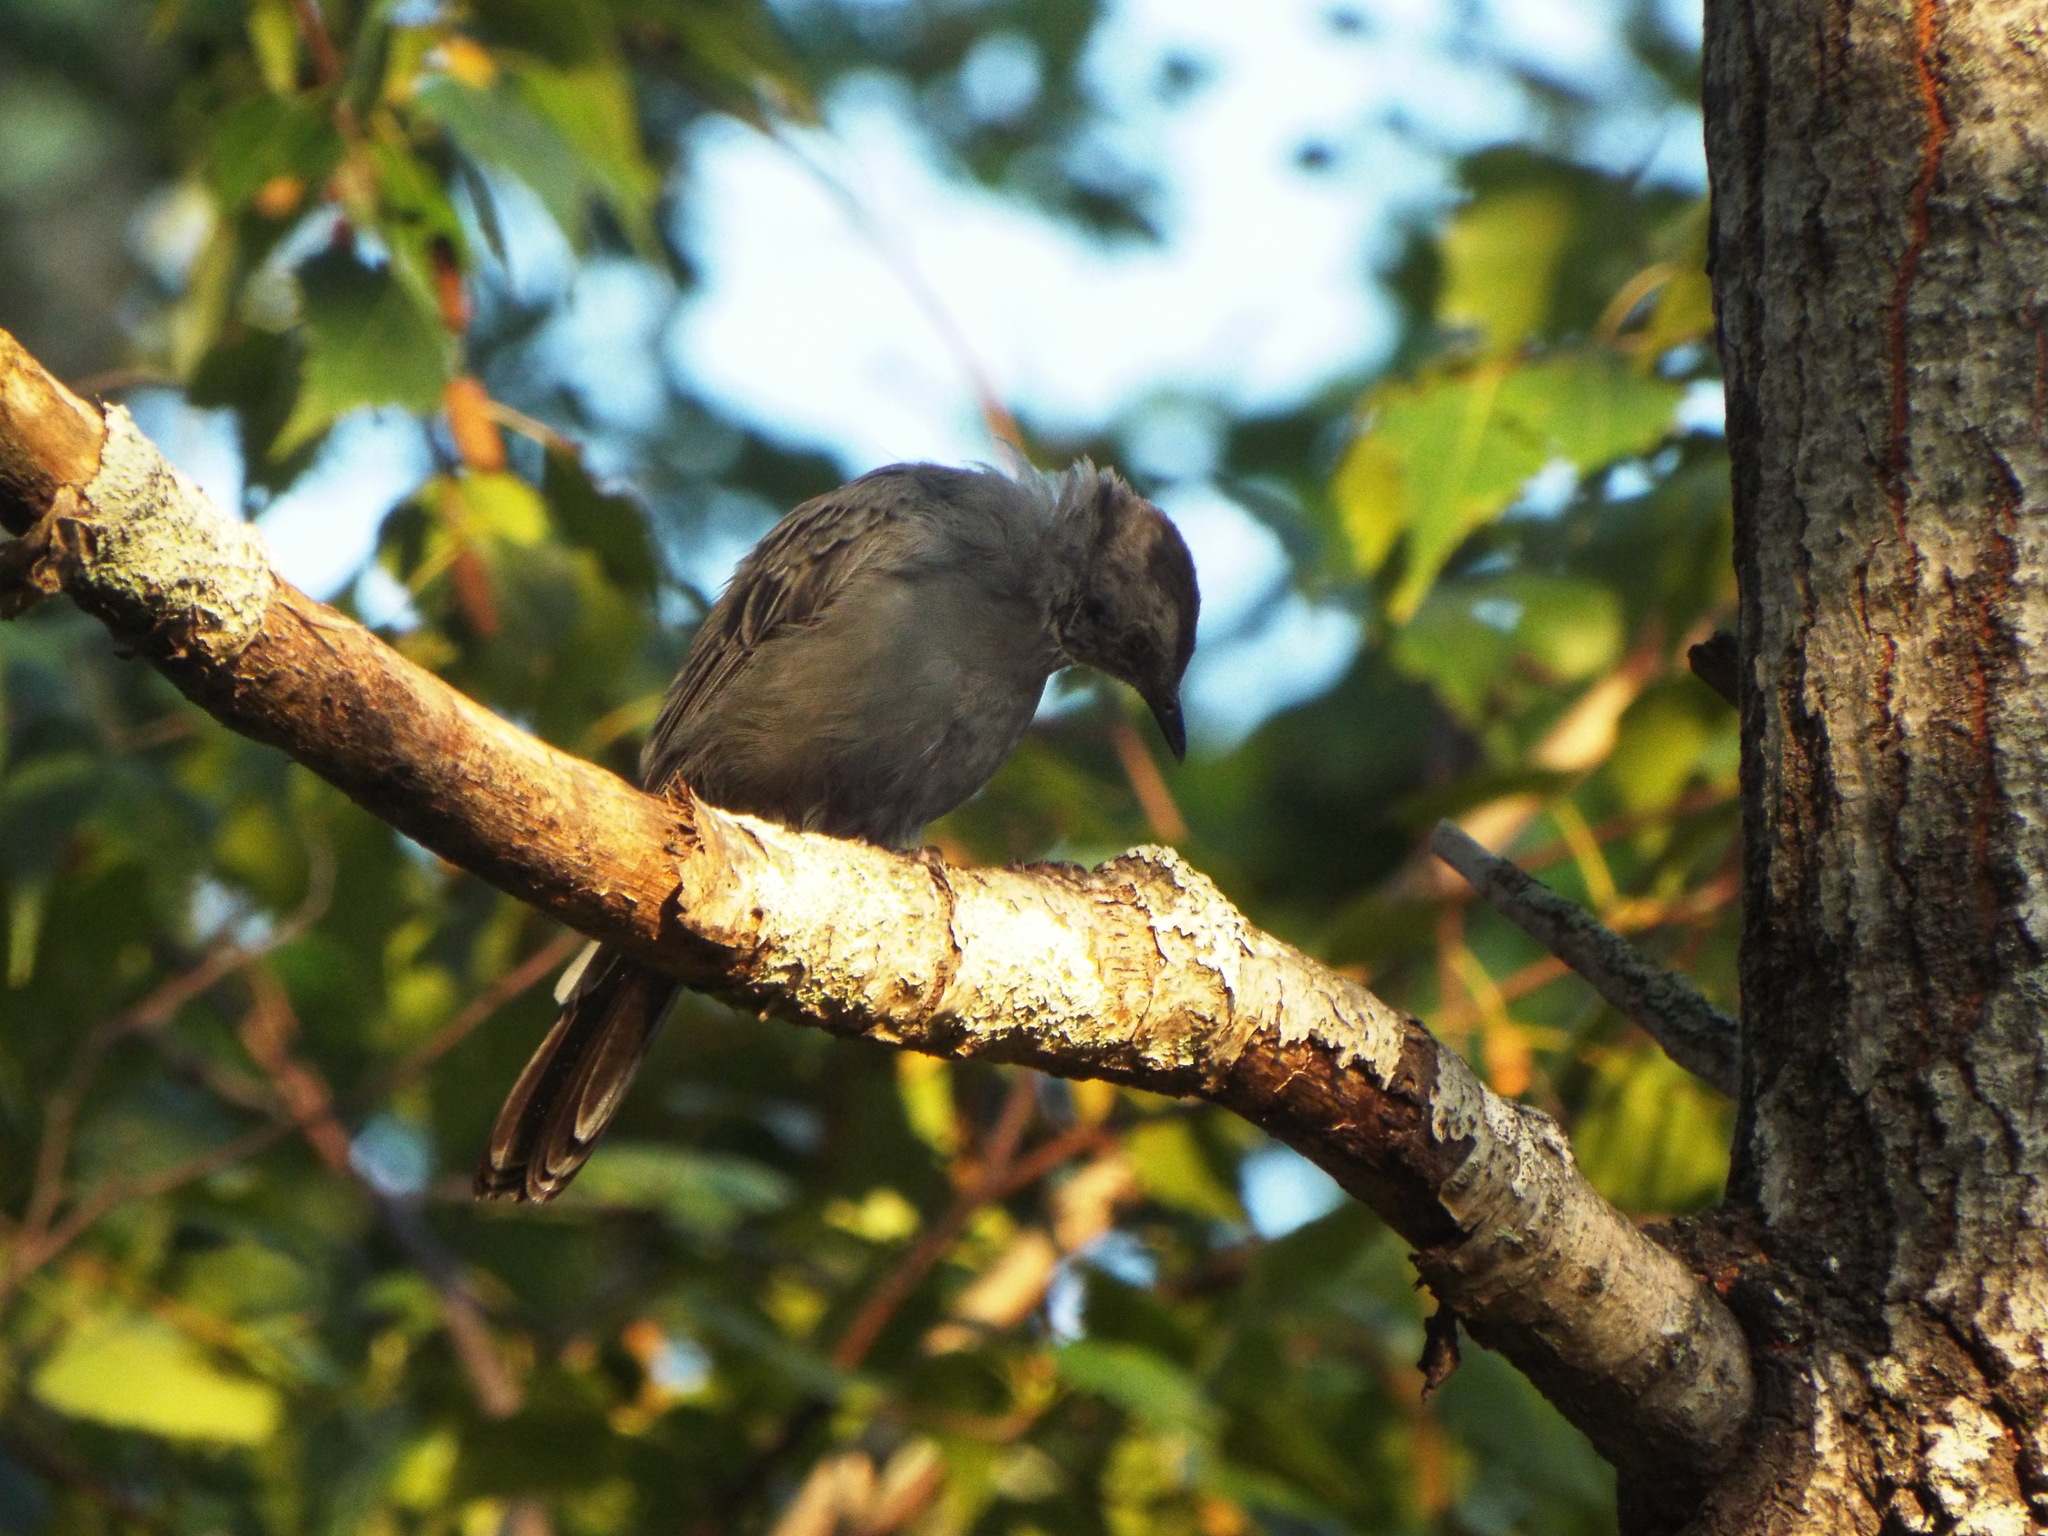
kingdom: Animalia
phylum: Chordata
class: Aves
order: Passeriformes
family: Mimidae
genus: Dumetella
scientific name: Dumetella carolinensis
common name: Gray catbird
